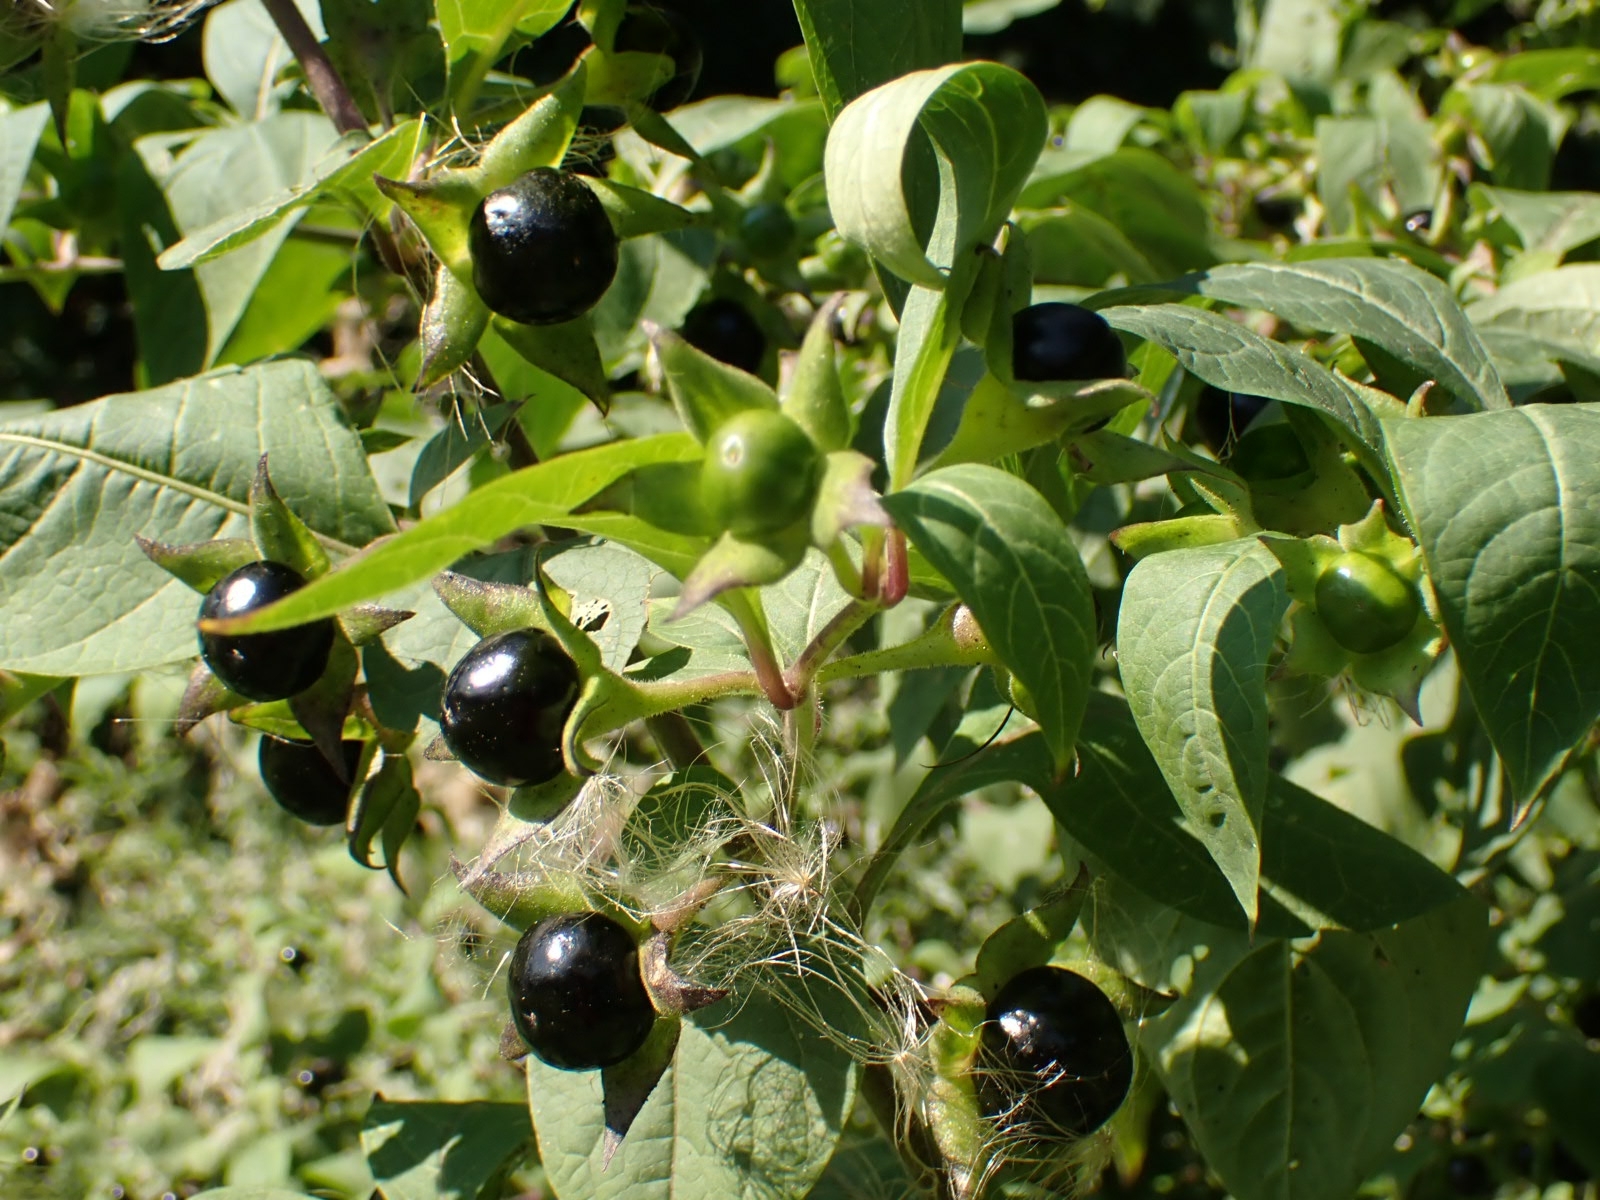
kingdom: Plantae
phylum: Tracheophyta
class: Magnoliopsida
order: Solanales
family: Solanaceae
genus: Atropa
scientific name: Atropa belladonna
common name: Deadly nightshade
